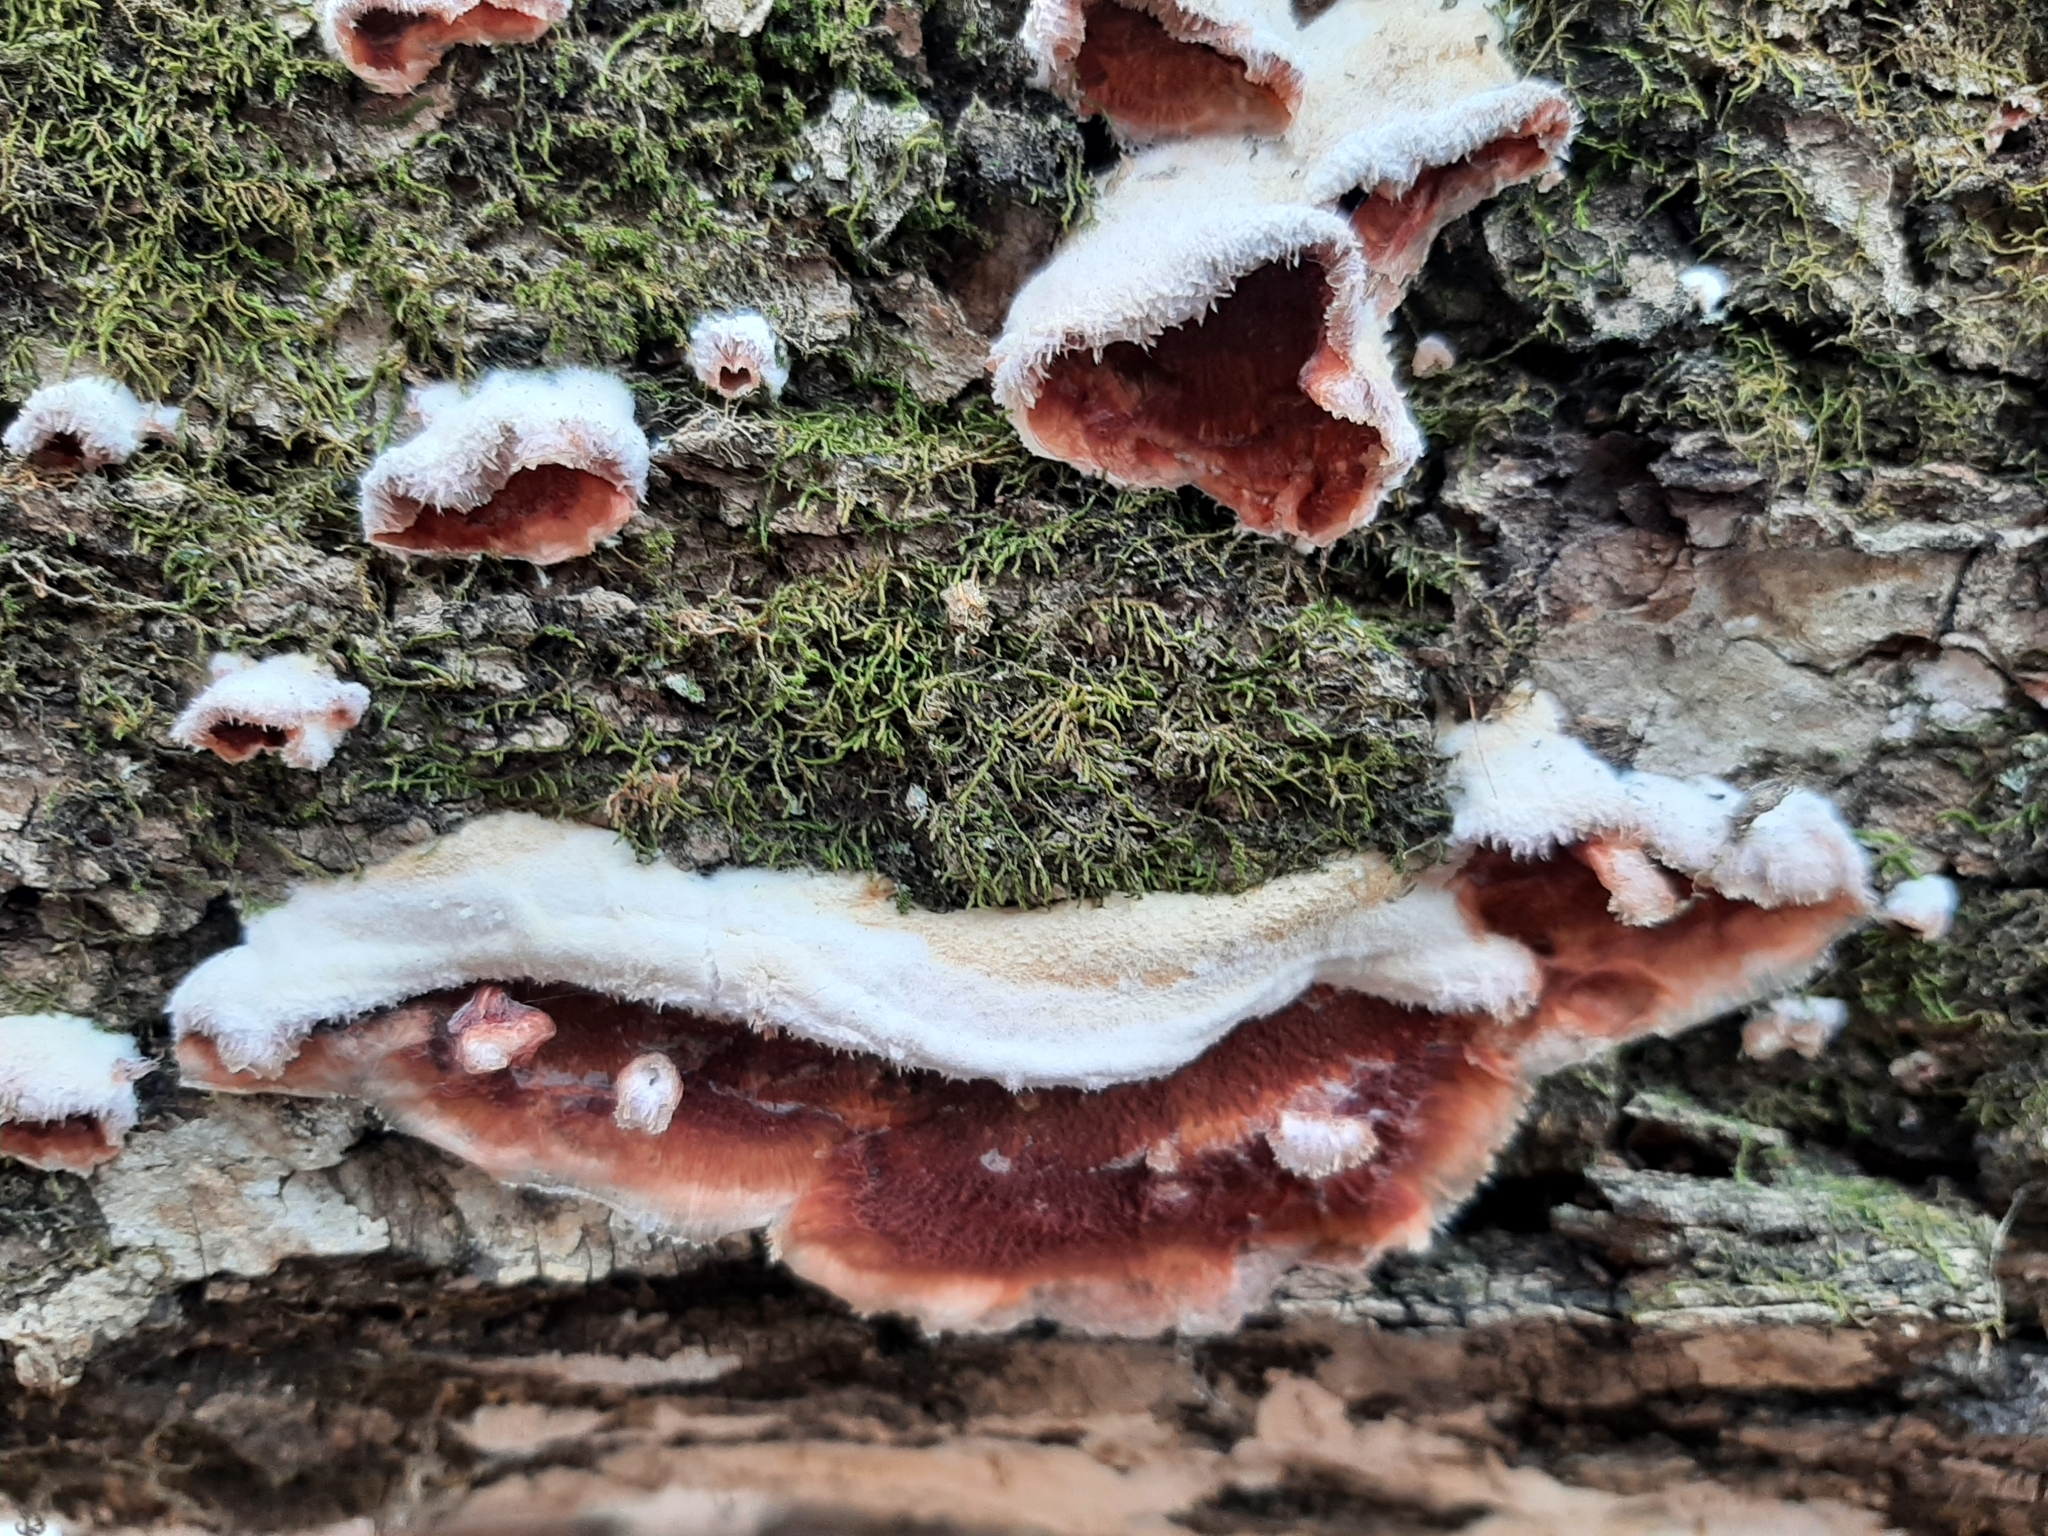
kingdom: Fungi
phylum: Basidiomycota
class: Agaricomycetes
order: Polyporales
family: Meruliaceae
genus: Phlebia
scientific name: Phlebia tremellosa
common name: Jelly rot
